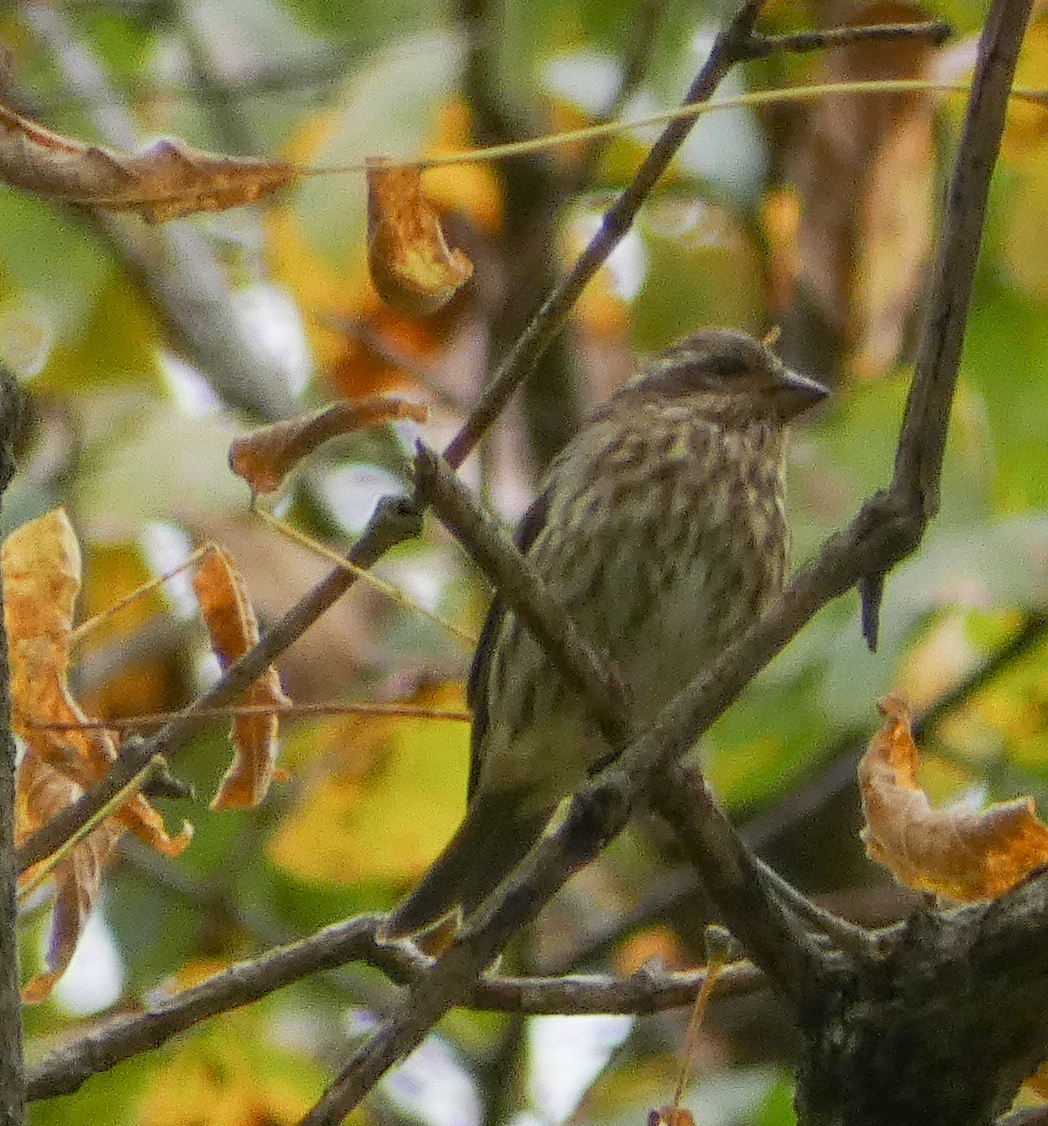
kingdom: Animalia
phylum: Chordata
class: Aves
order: Passeriformes
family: Fringillidae
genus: Haemorhous
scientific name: Haemorhous purpureus
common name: Purple finch
